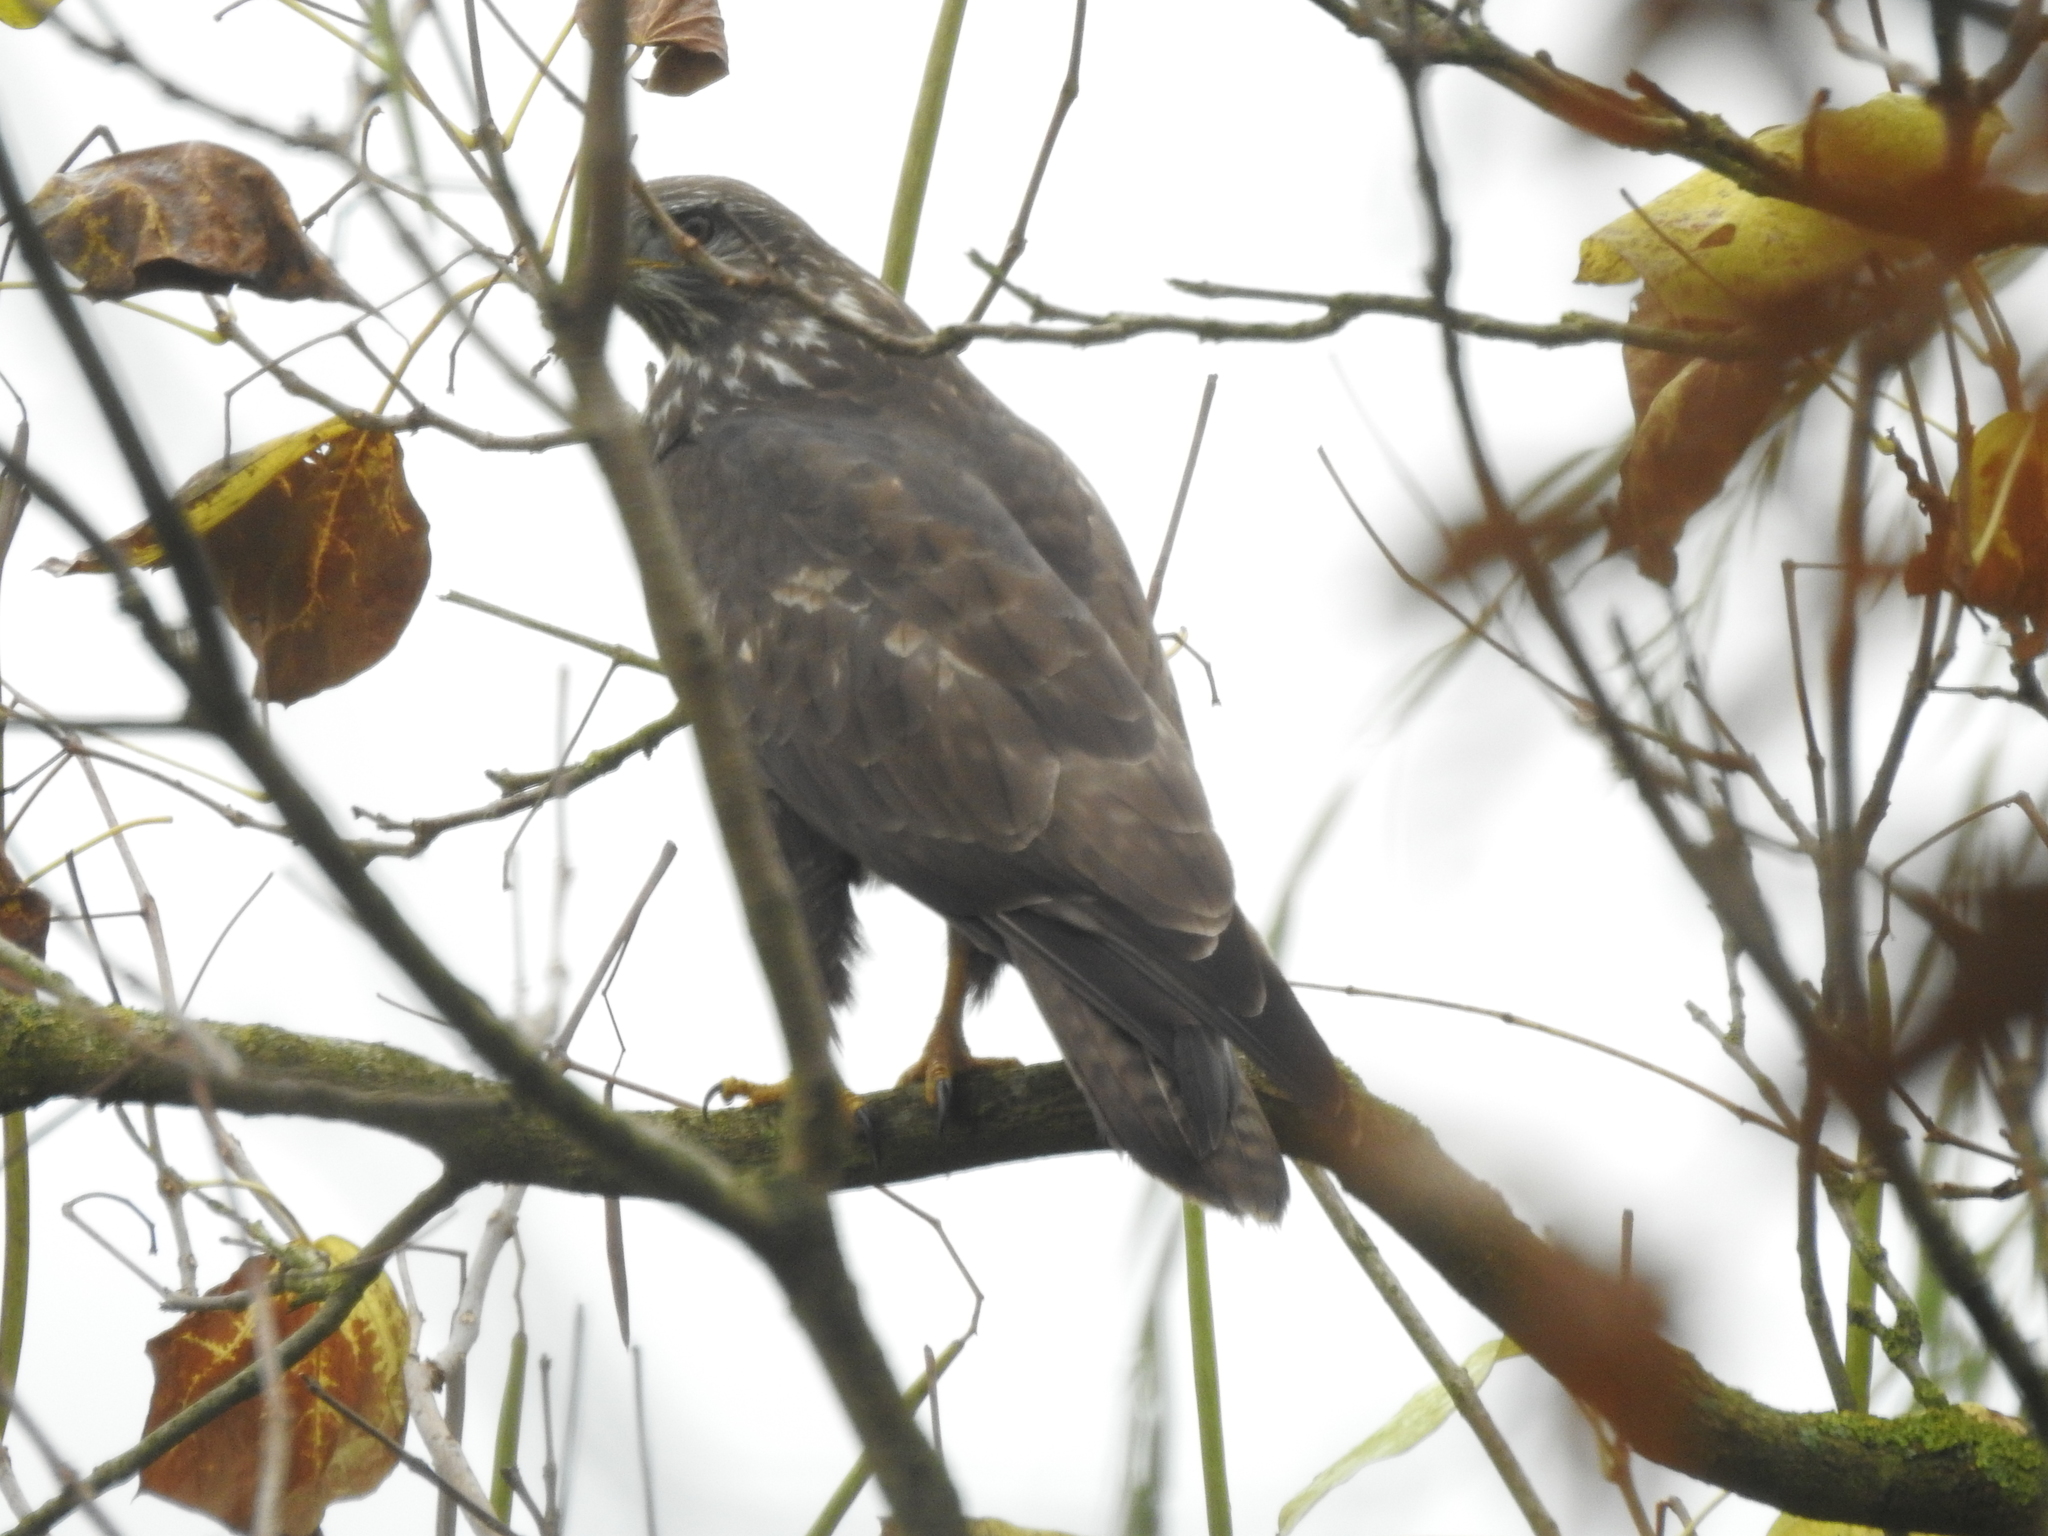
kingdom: Animalia
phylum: Chordata
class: Aves
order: Accipitriformes
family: Accipitridae
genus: Buteo
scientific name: Buteo buteo
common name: Common buzzard
